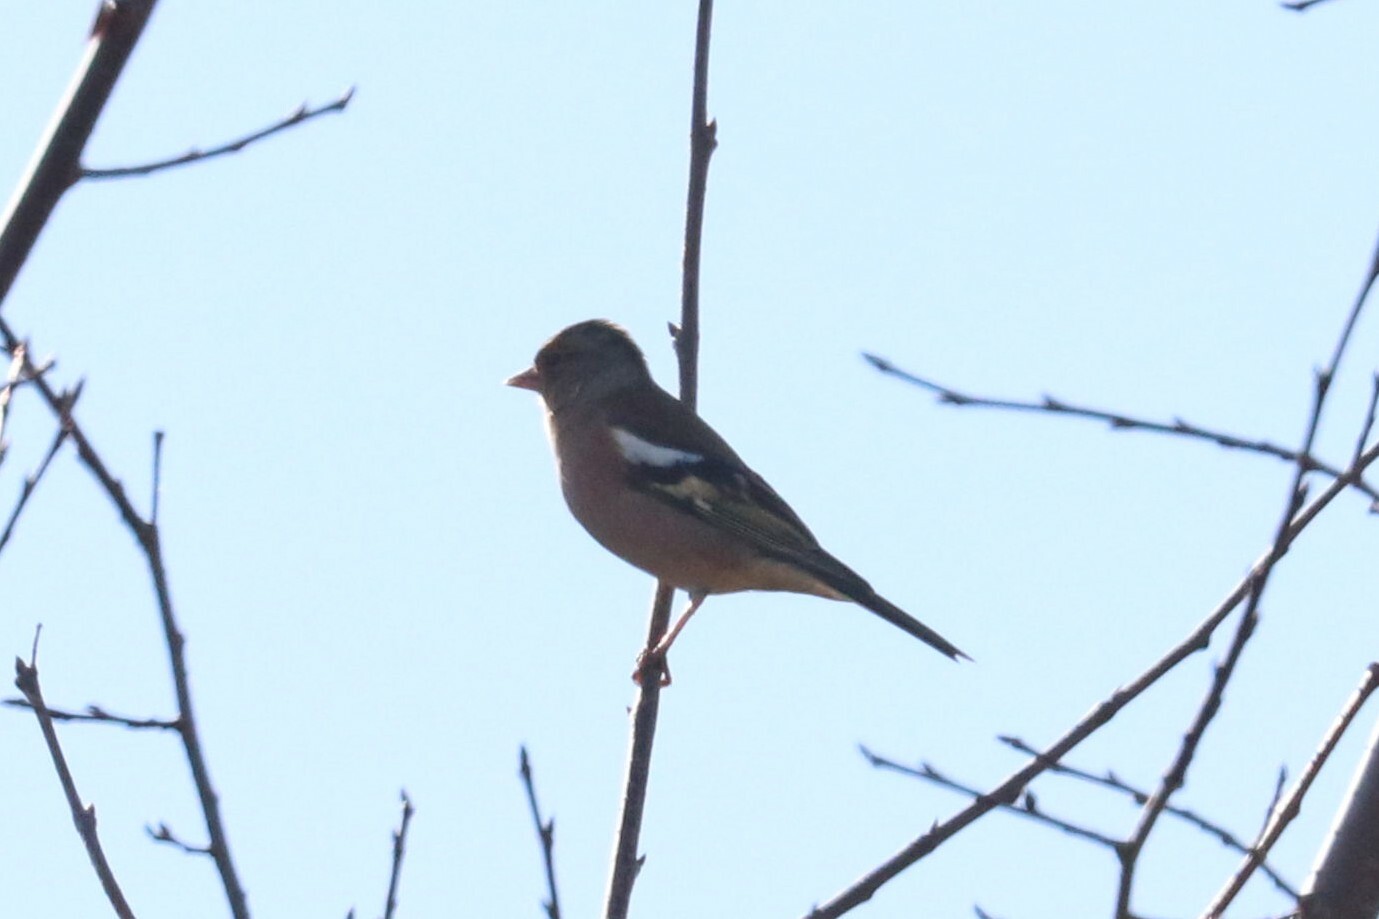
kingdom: Animalia
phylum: Chordata
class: Aves
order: Passeriformes
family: Fringillidae
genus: Fringilla
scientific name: Fringilla coelebs
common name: Common chaffinch
